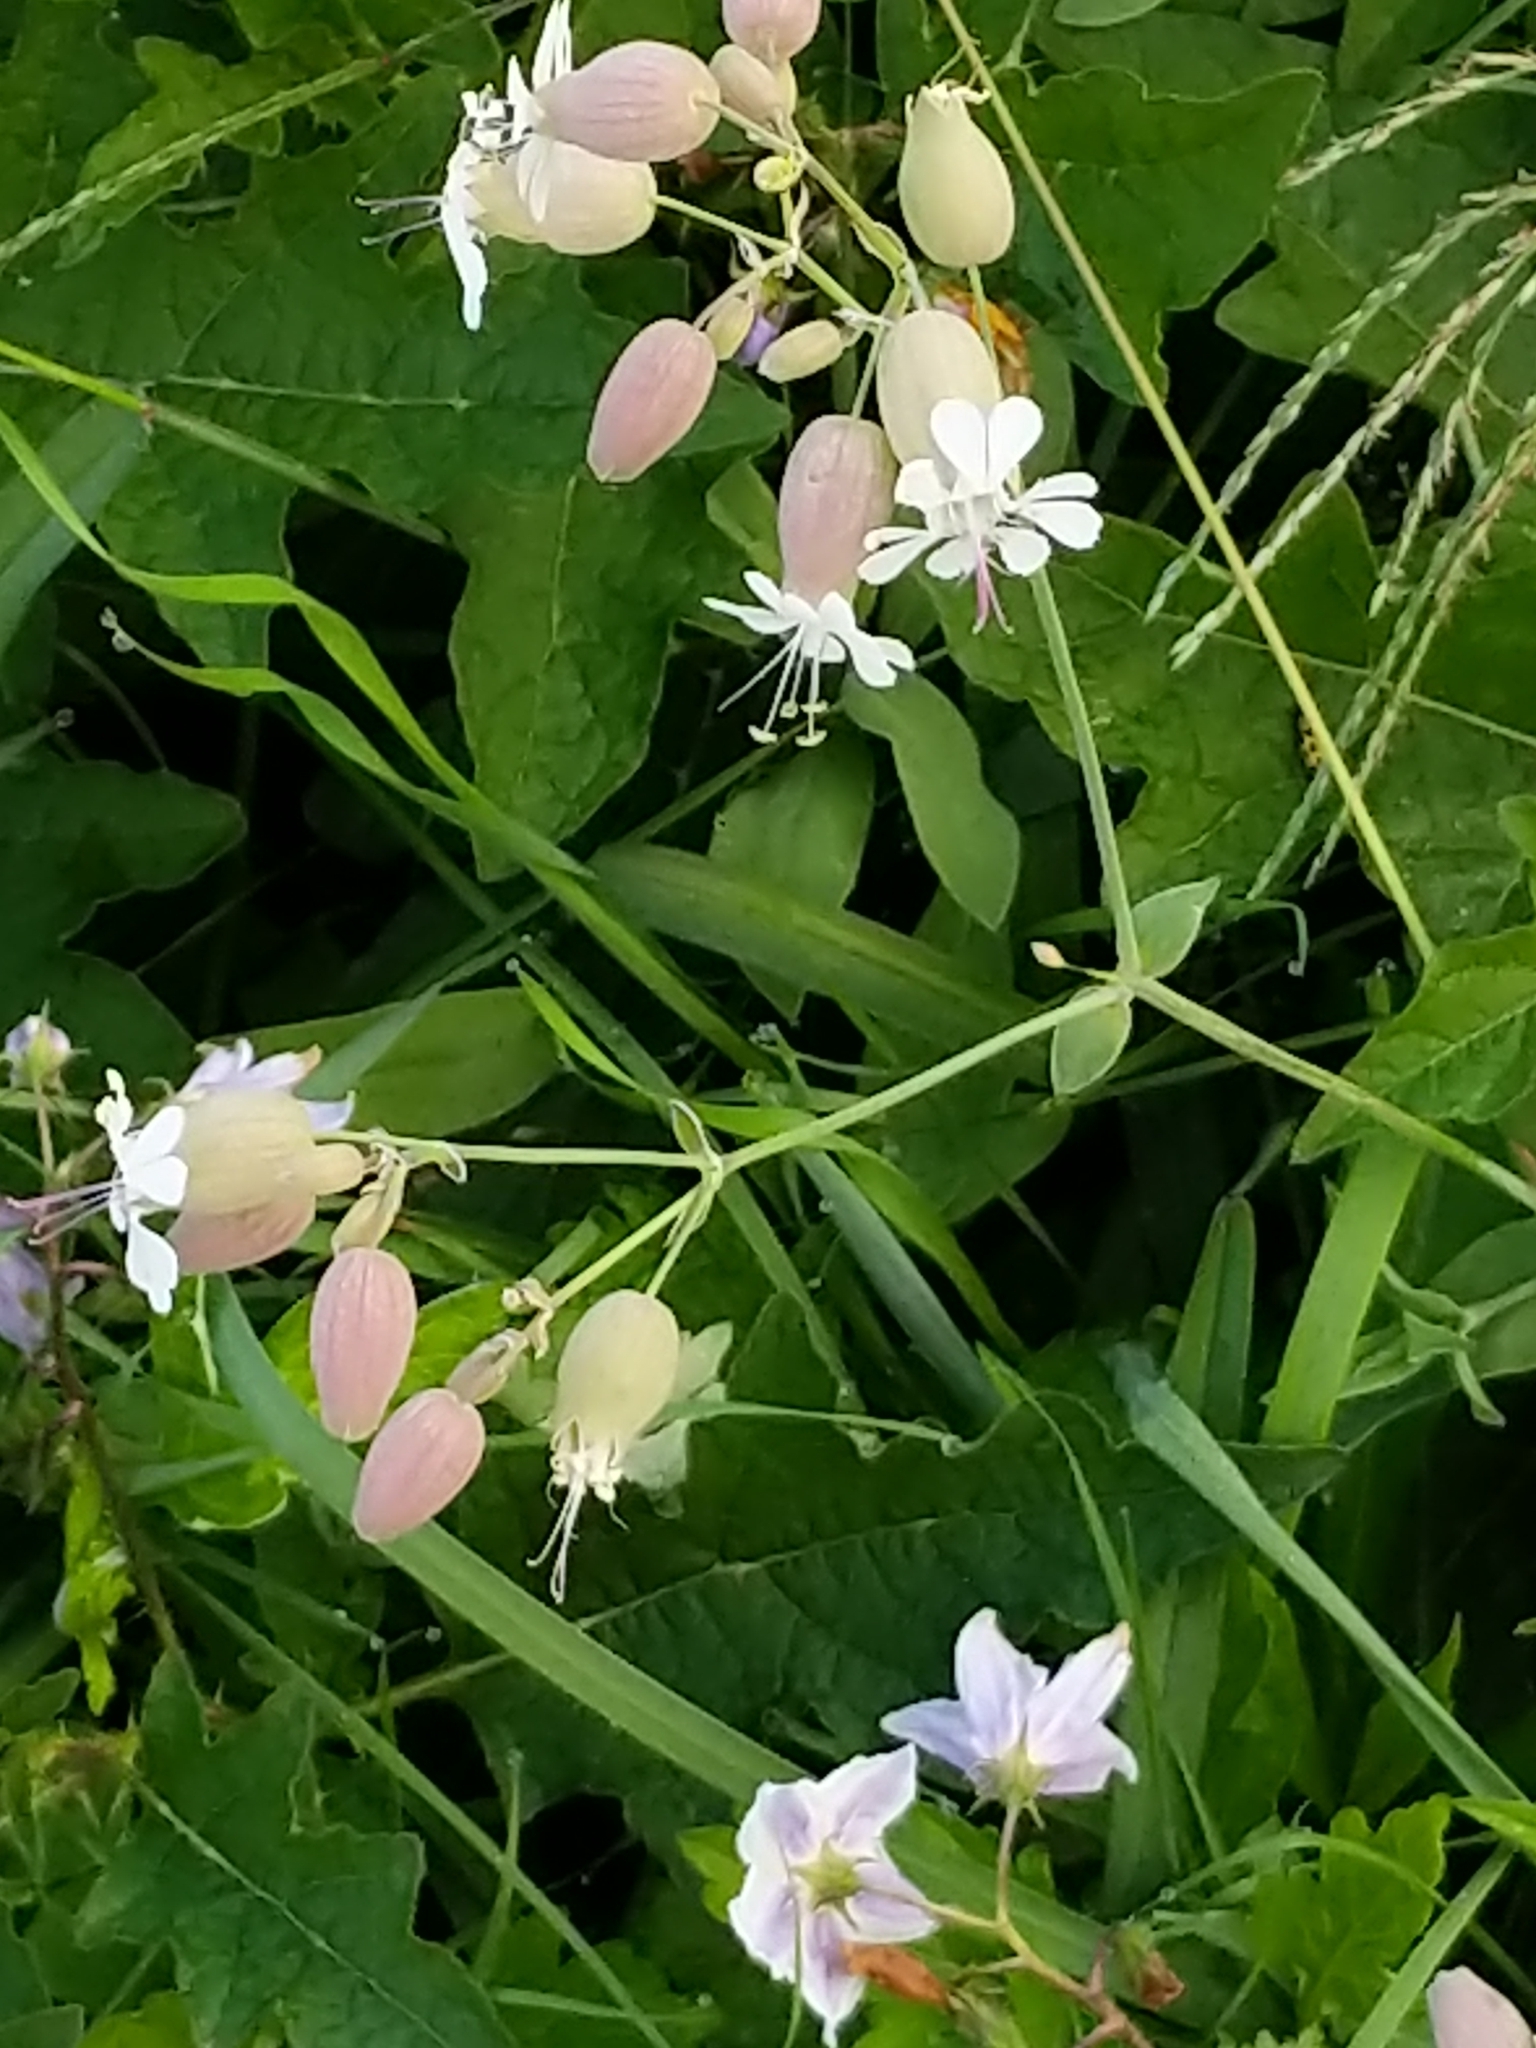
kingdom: Plantae
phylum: Tracheophyta
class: Magnoliopsida
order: Caryophyllales
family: Caryophyllaceae
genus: Silene
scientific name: Silene vulgaris
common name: Bladder campion
